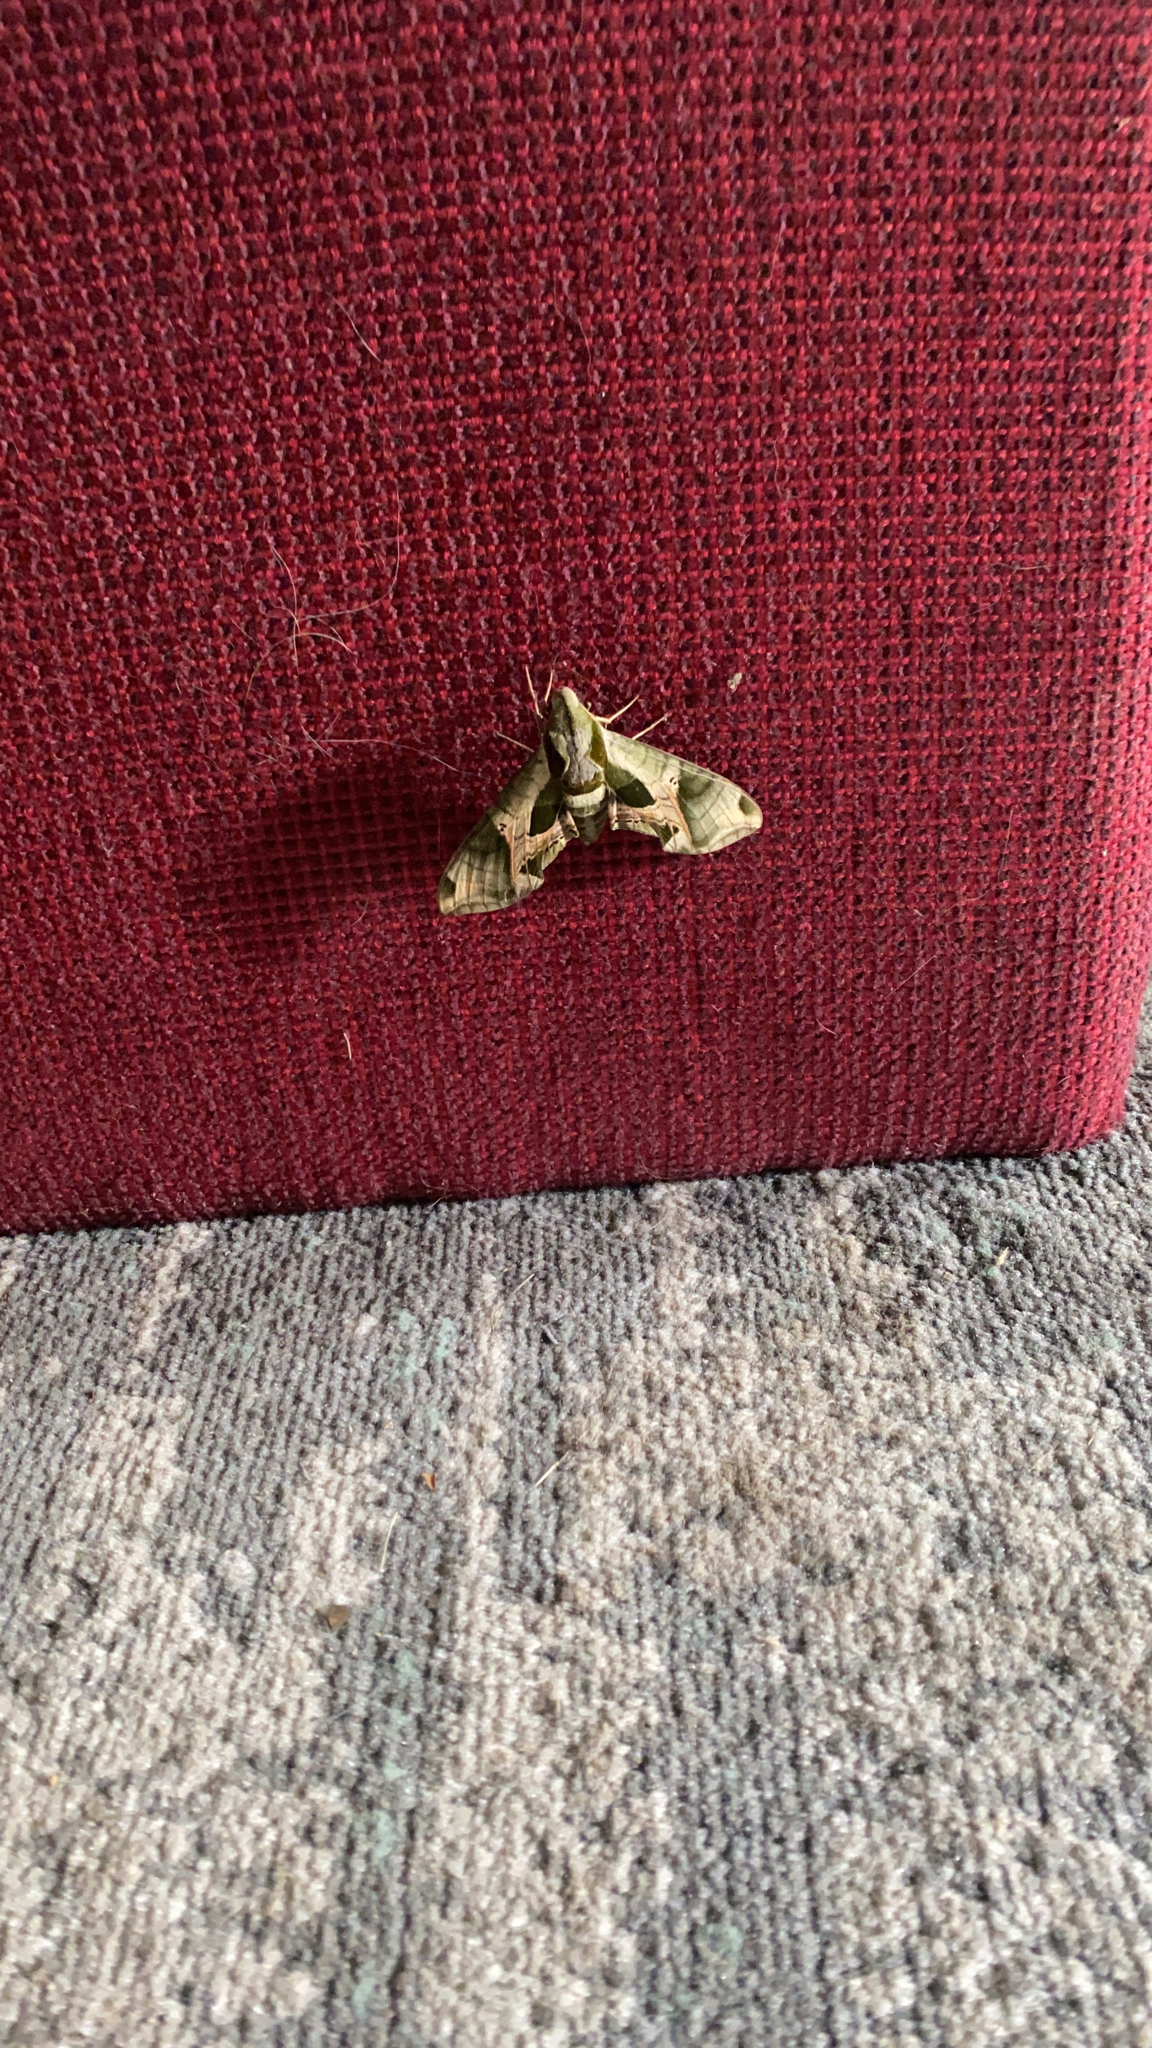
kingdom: Animalia
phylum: Arthropoda
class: Insecta
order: Lepidoptera
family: Sphingidae
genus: Eumorpha
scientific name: Eumorpha pandorus
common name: Pandora sphinx
